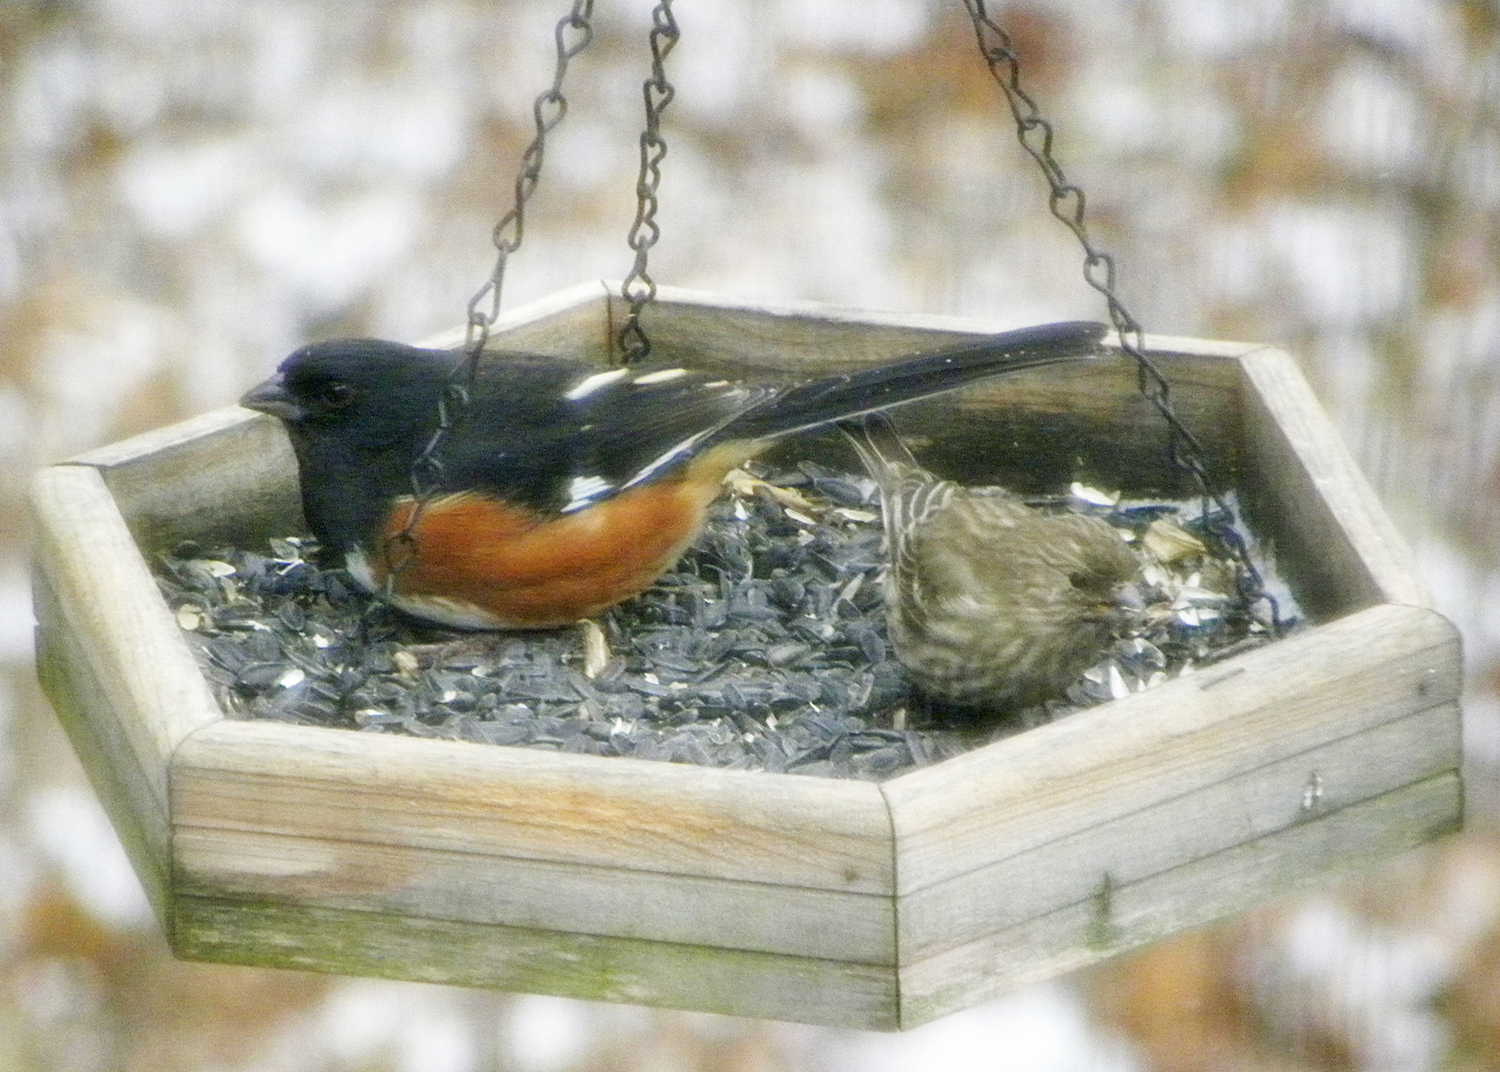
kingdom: Animalia
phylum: Chordata
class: Aves
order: Passeriformes
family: Passerellidae
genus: Pipilo
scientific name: Pipilo erythrophthalmus
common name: Eastern towhee
